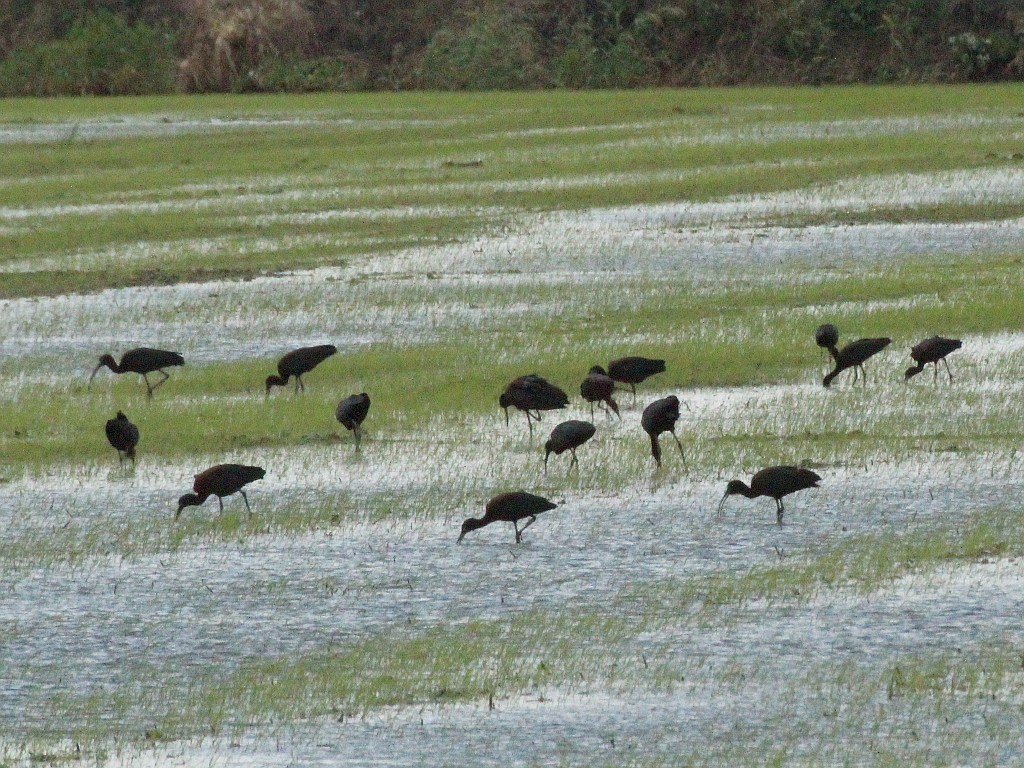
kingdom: Animalia
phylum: Chordata
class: Aves
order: Pelecaniformes
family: Threskiornithidae
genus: Plegadis
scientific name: Plegadis falcinellus
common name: Glossy ibis
